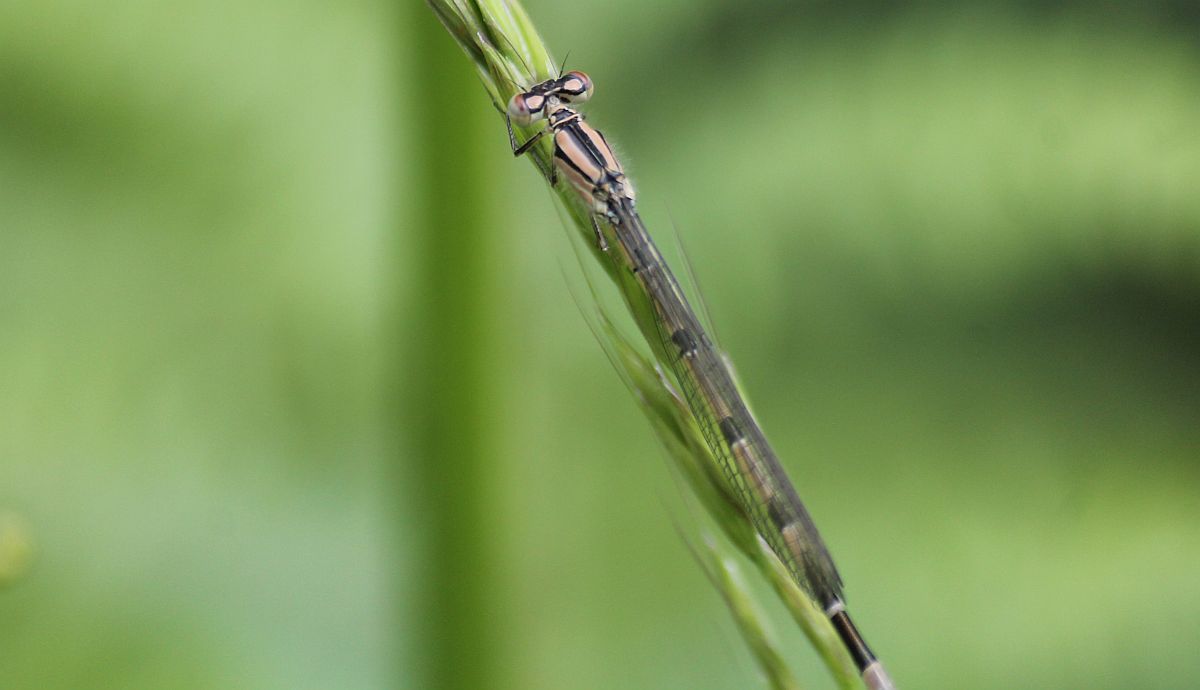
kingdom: Animalia
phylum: Arthropoda
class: Insecta
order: Odonata
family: Coenagrionidae
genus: Enallagma
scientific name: Enallagma cyathigerum
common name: Common blue damselfly
